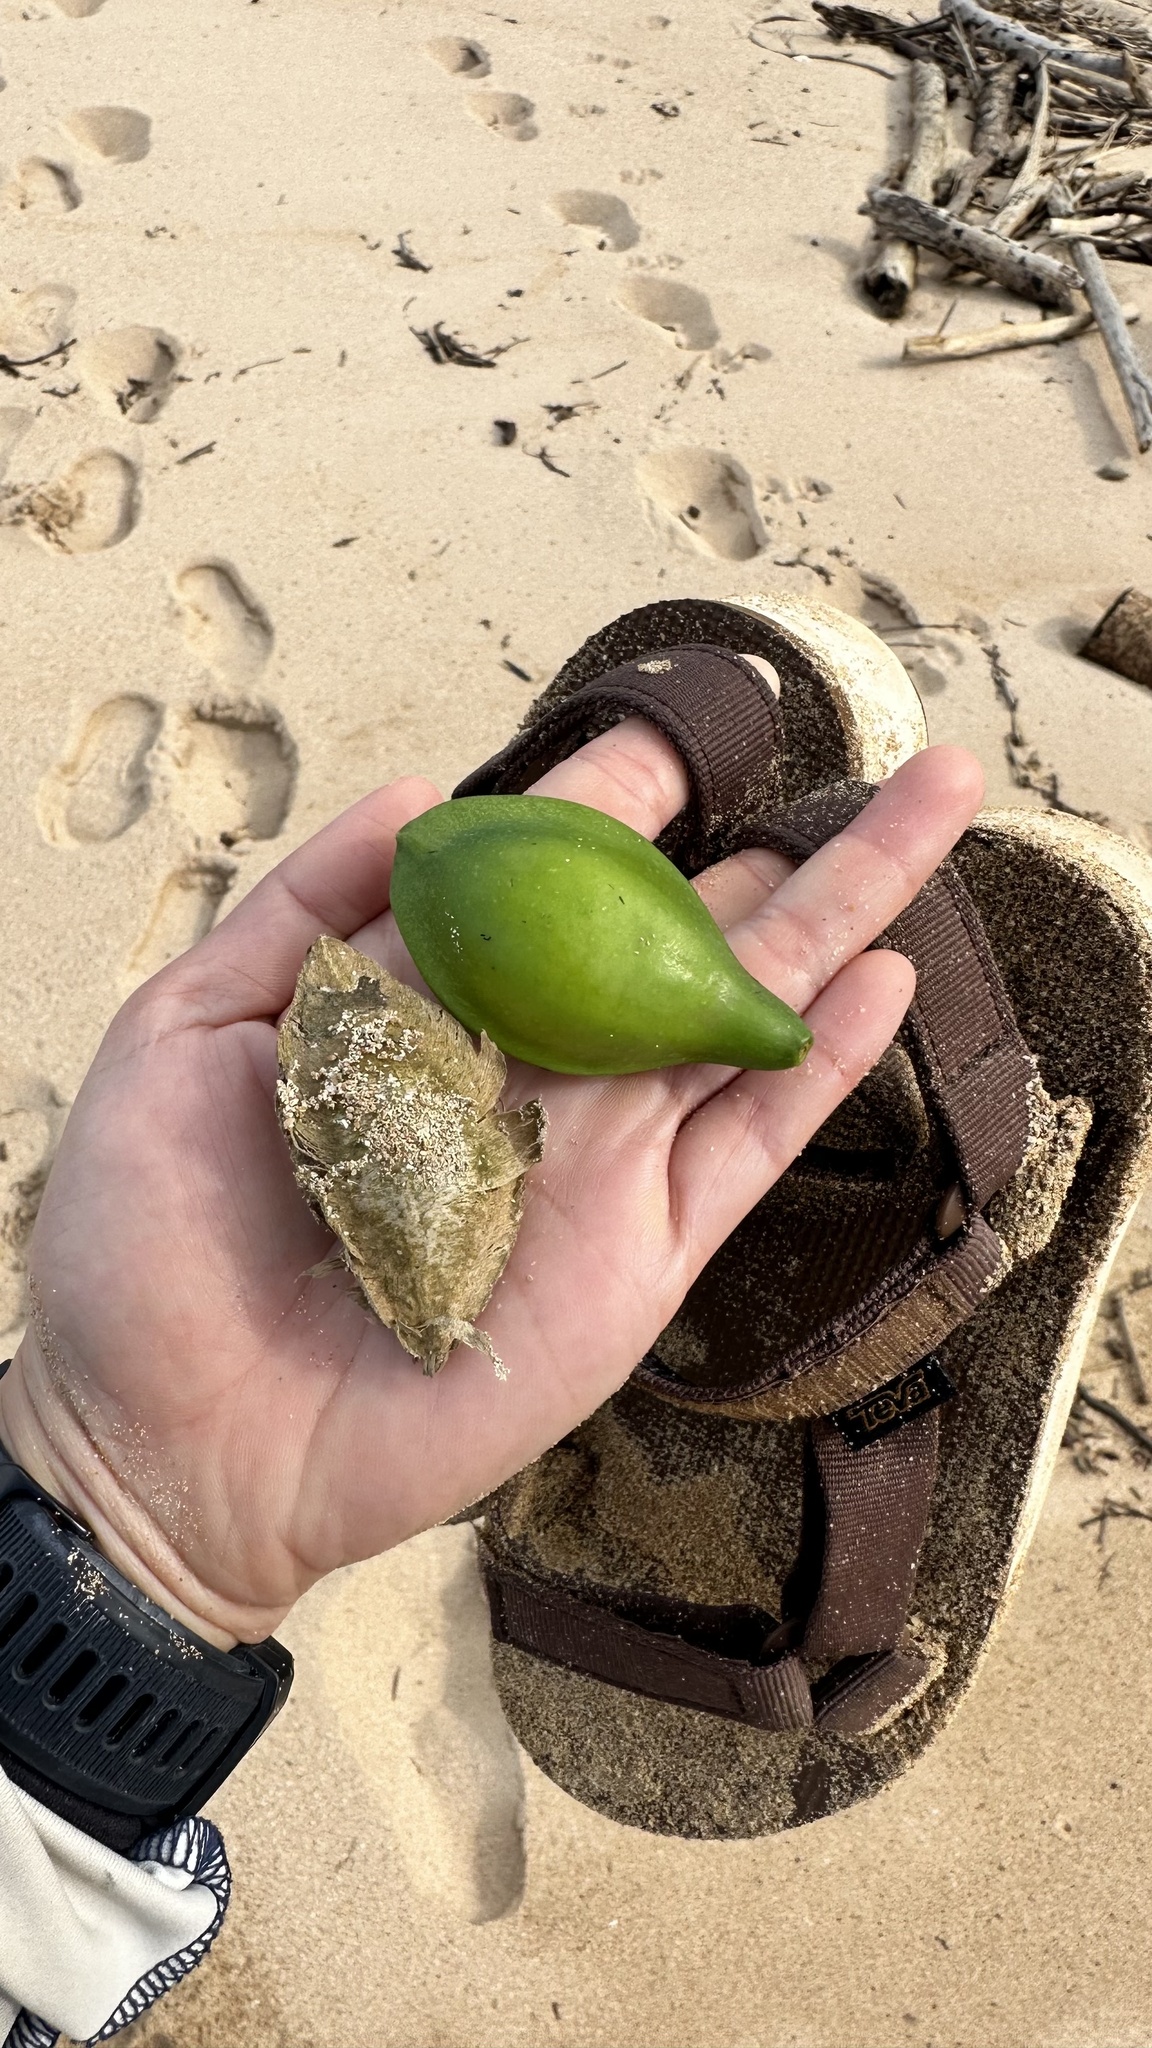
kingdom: Plantae
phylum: Tracheophyta
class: Magnoliopsida
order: Myrtales
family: Combretaceae
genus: Terminalia
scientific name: Terminalia catappa
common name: Tropical almond
